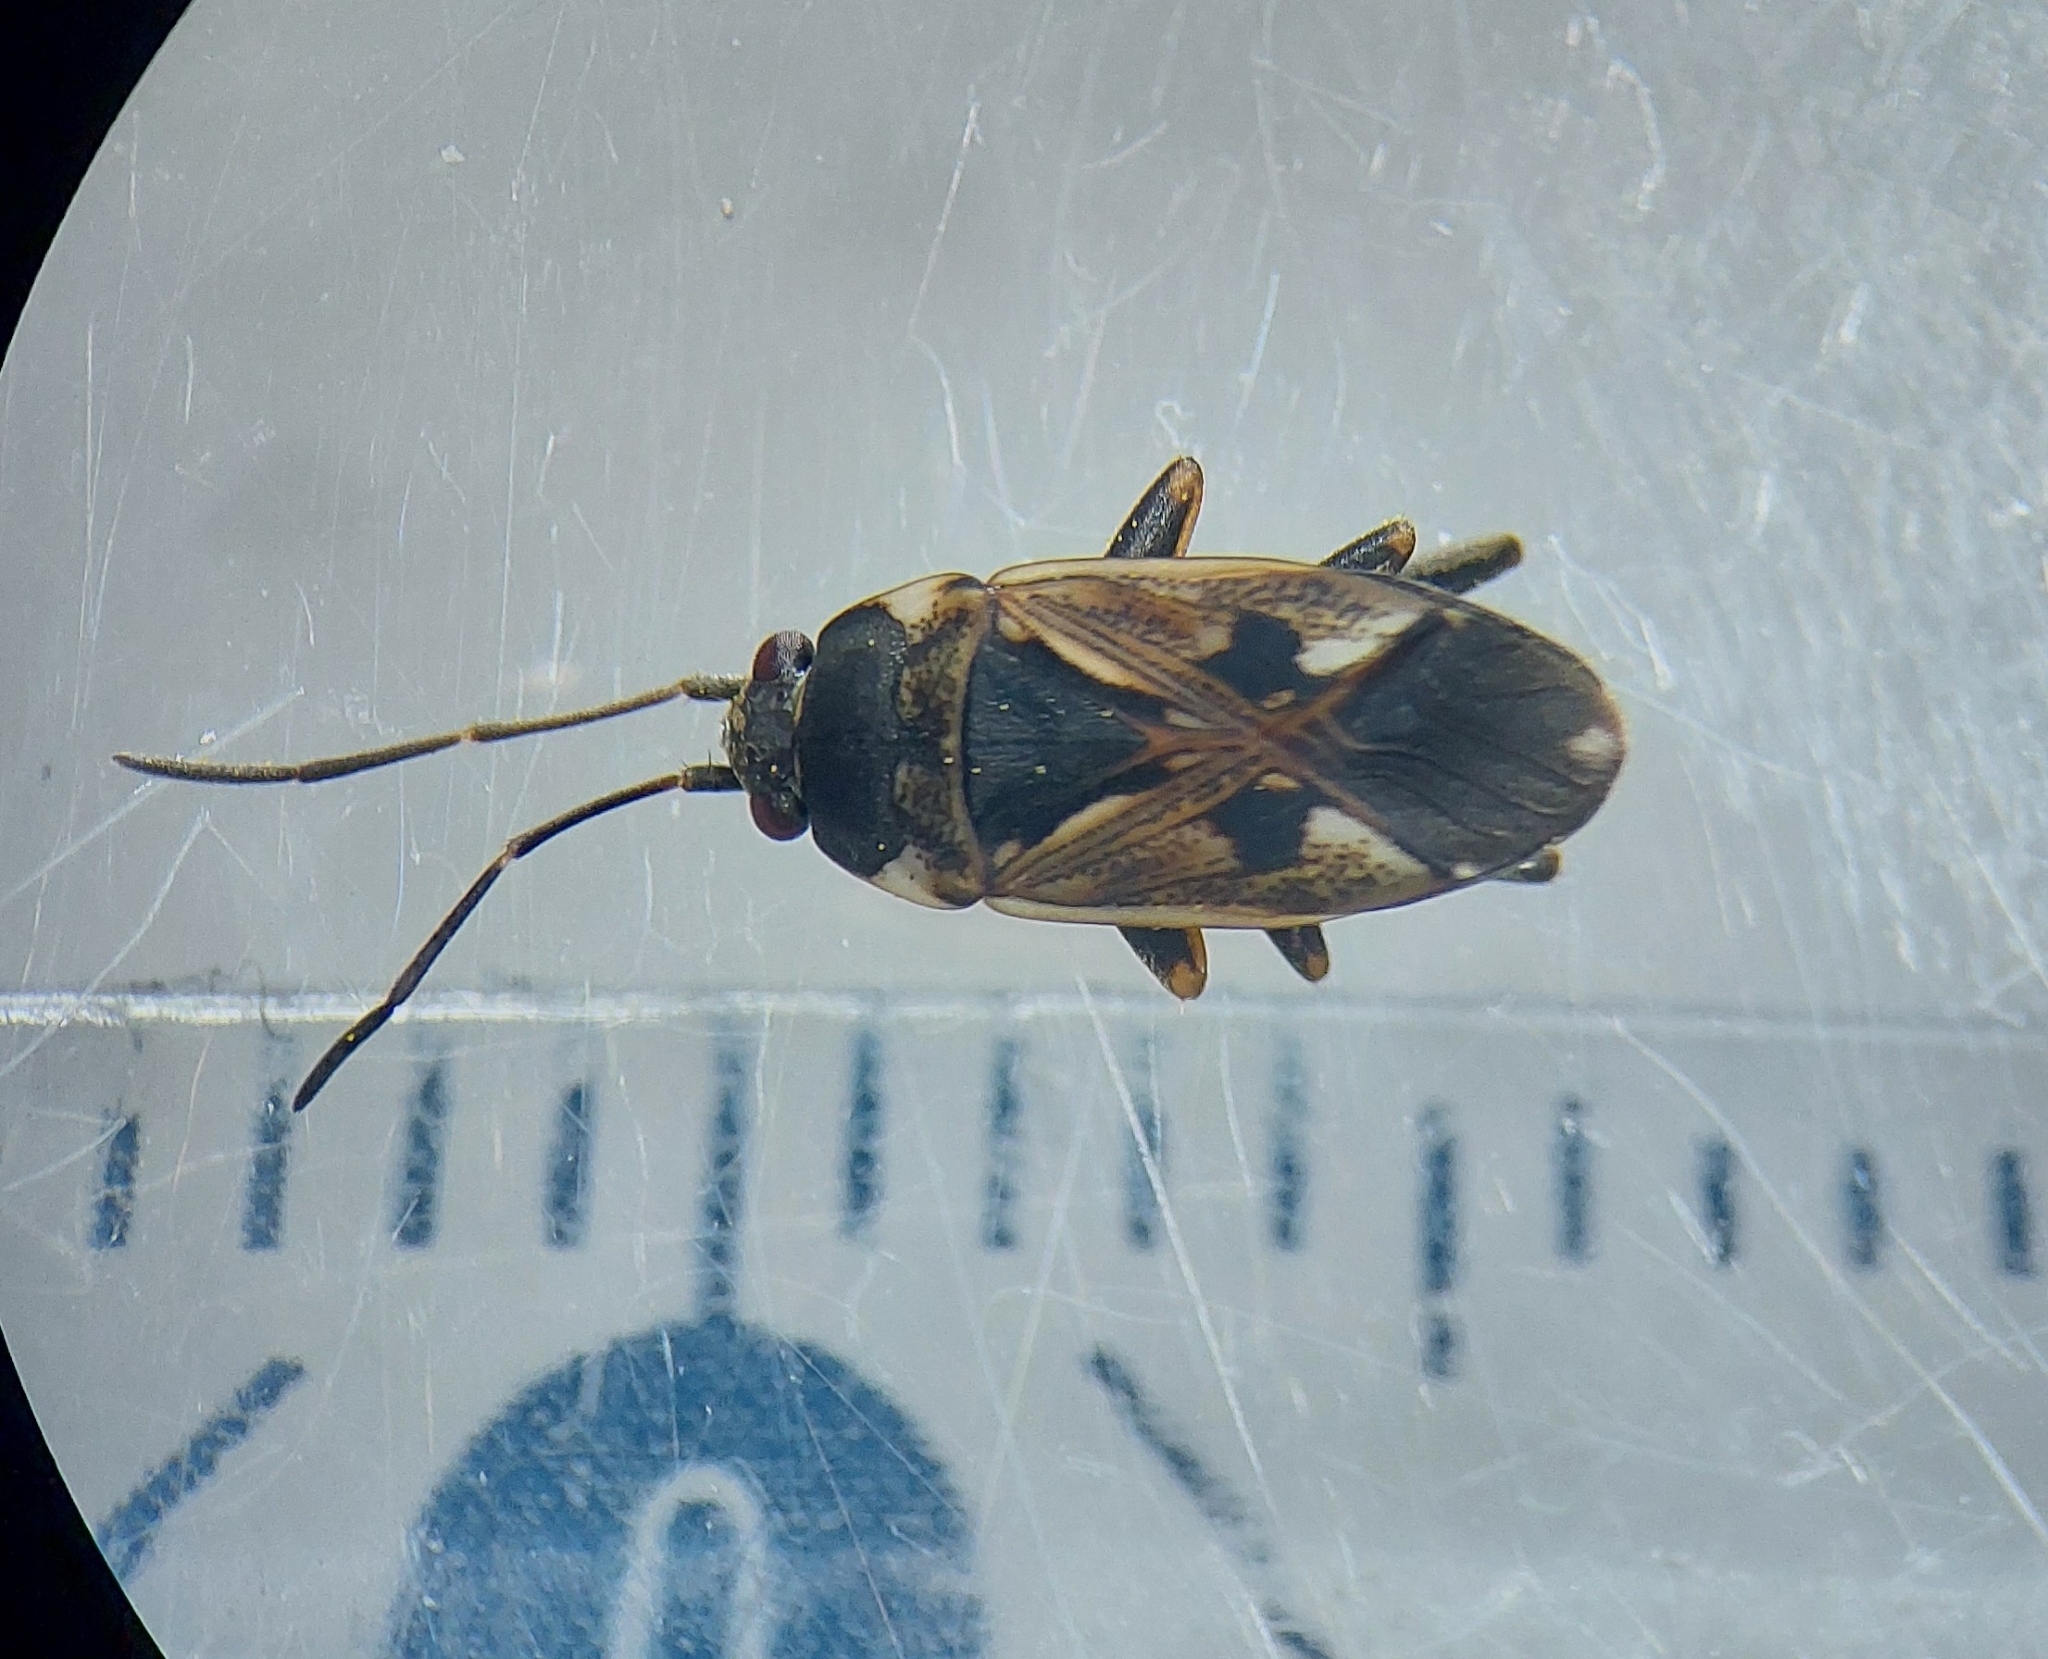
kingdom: Animalia
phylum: Arthropoda
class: Insecta
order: Hemiptera
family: Rhyparochromidae
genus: Rhyparochromus
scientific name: Rhyparochromus vulgaris
